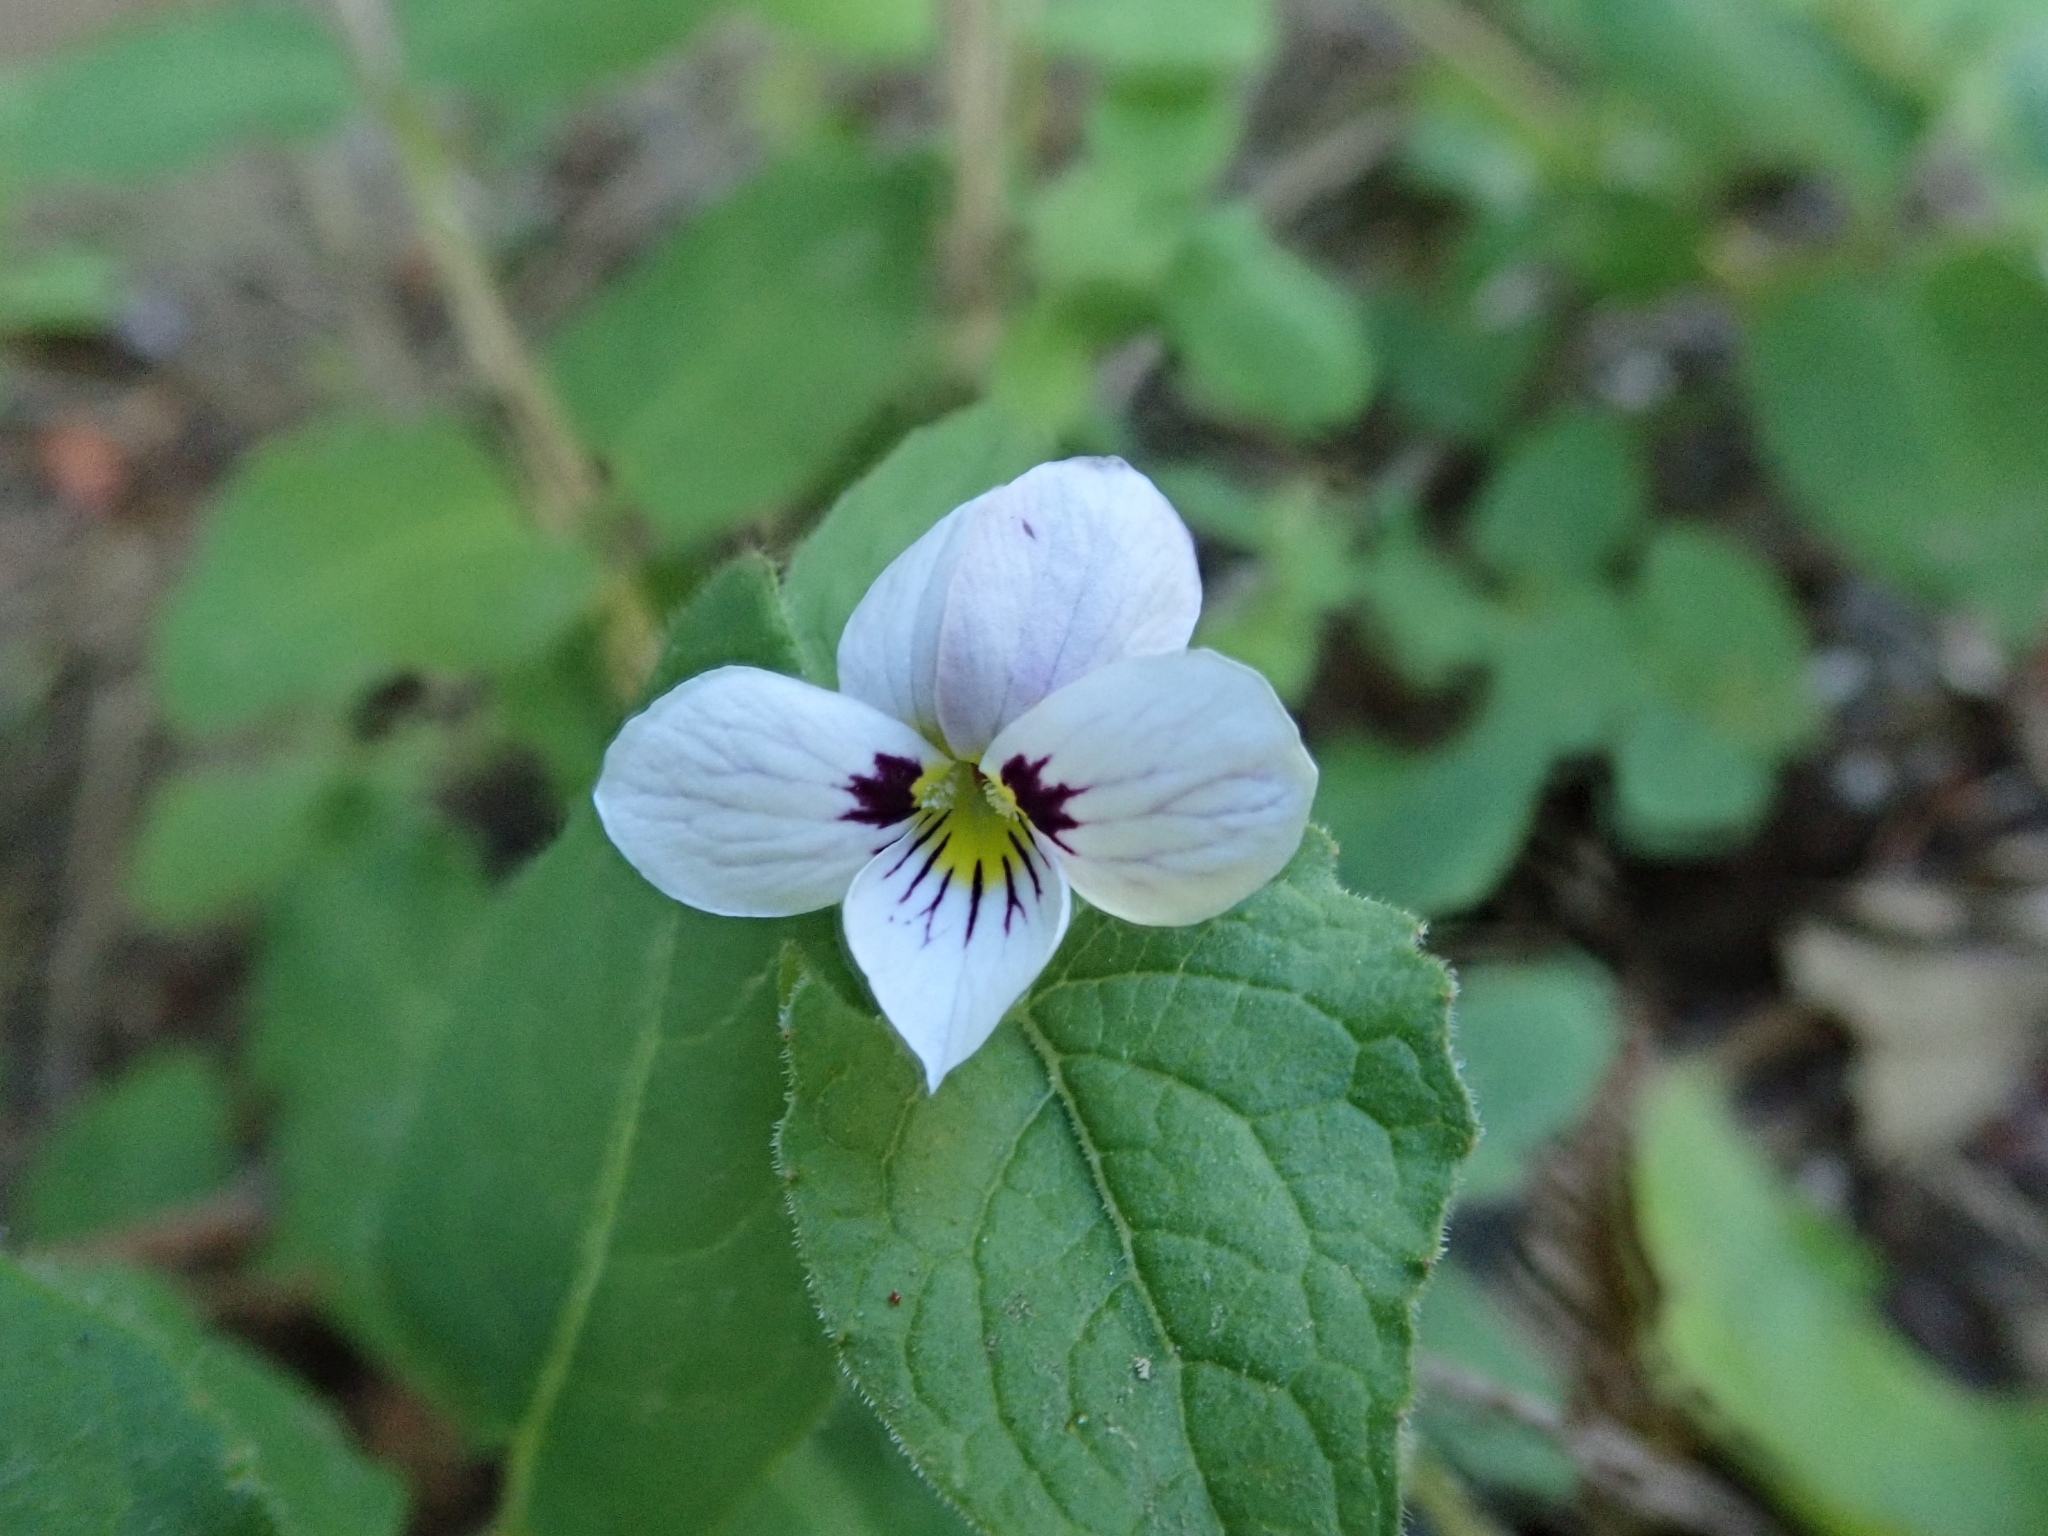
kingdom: Plantae
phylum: Tracheophyta
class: Magnoliopsida
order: Malpighiales
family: Violaceae
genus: Viola
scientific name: Viola ocellata
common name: Western heart's ease
